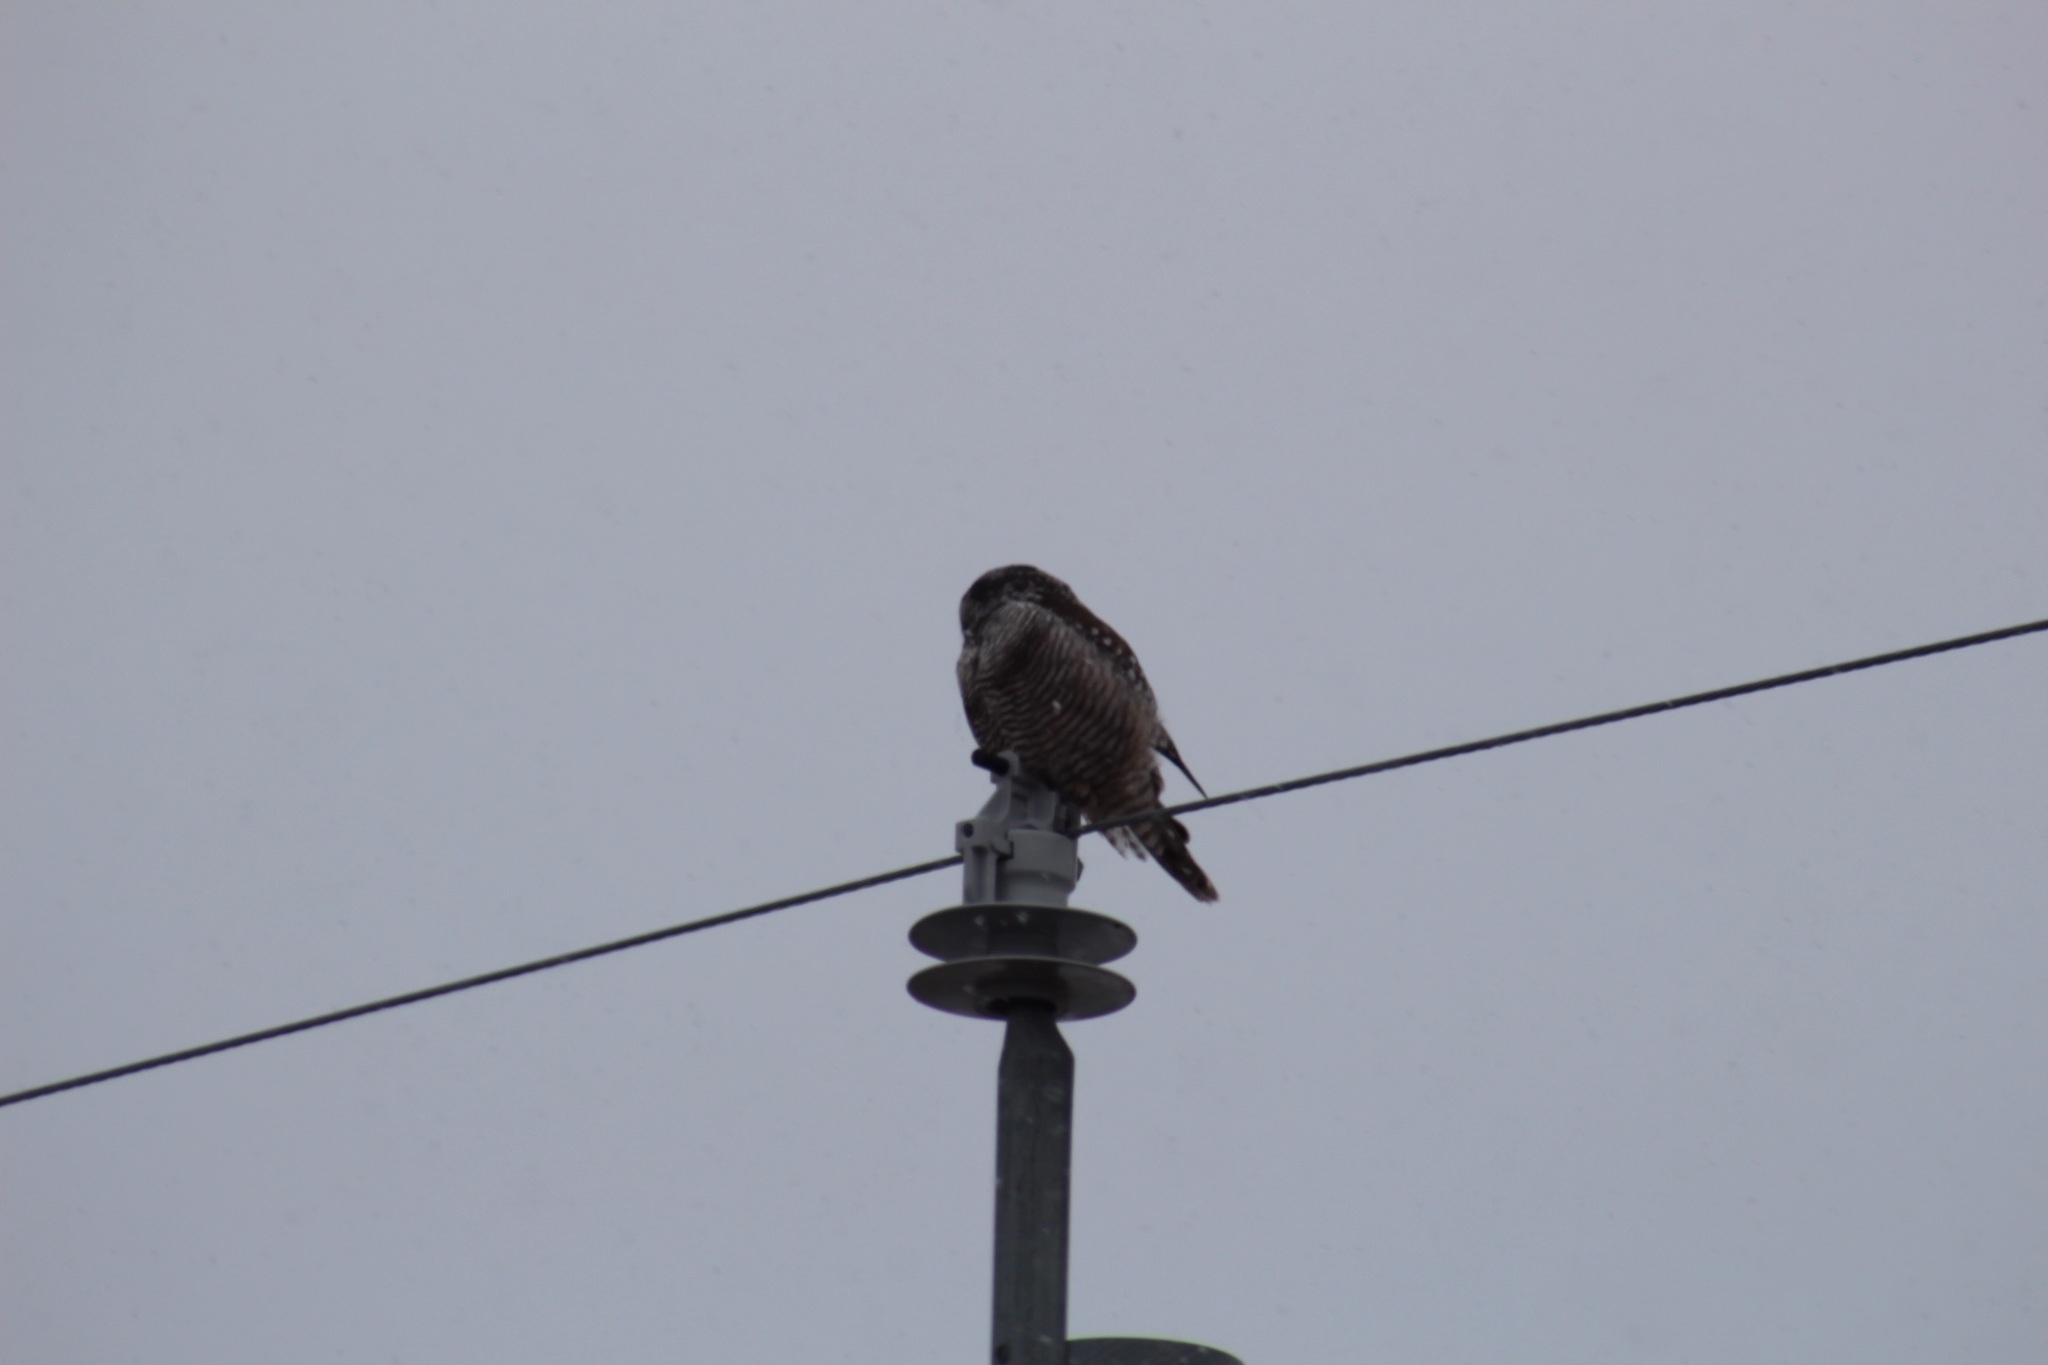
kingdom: Animalia
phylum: Chordata
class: Aves
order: Strigiformes
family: Strigidae
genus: Surnia
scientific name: Surnia ulula
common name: Northern hawk-owl
